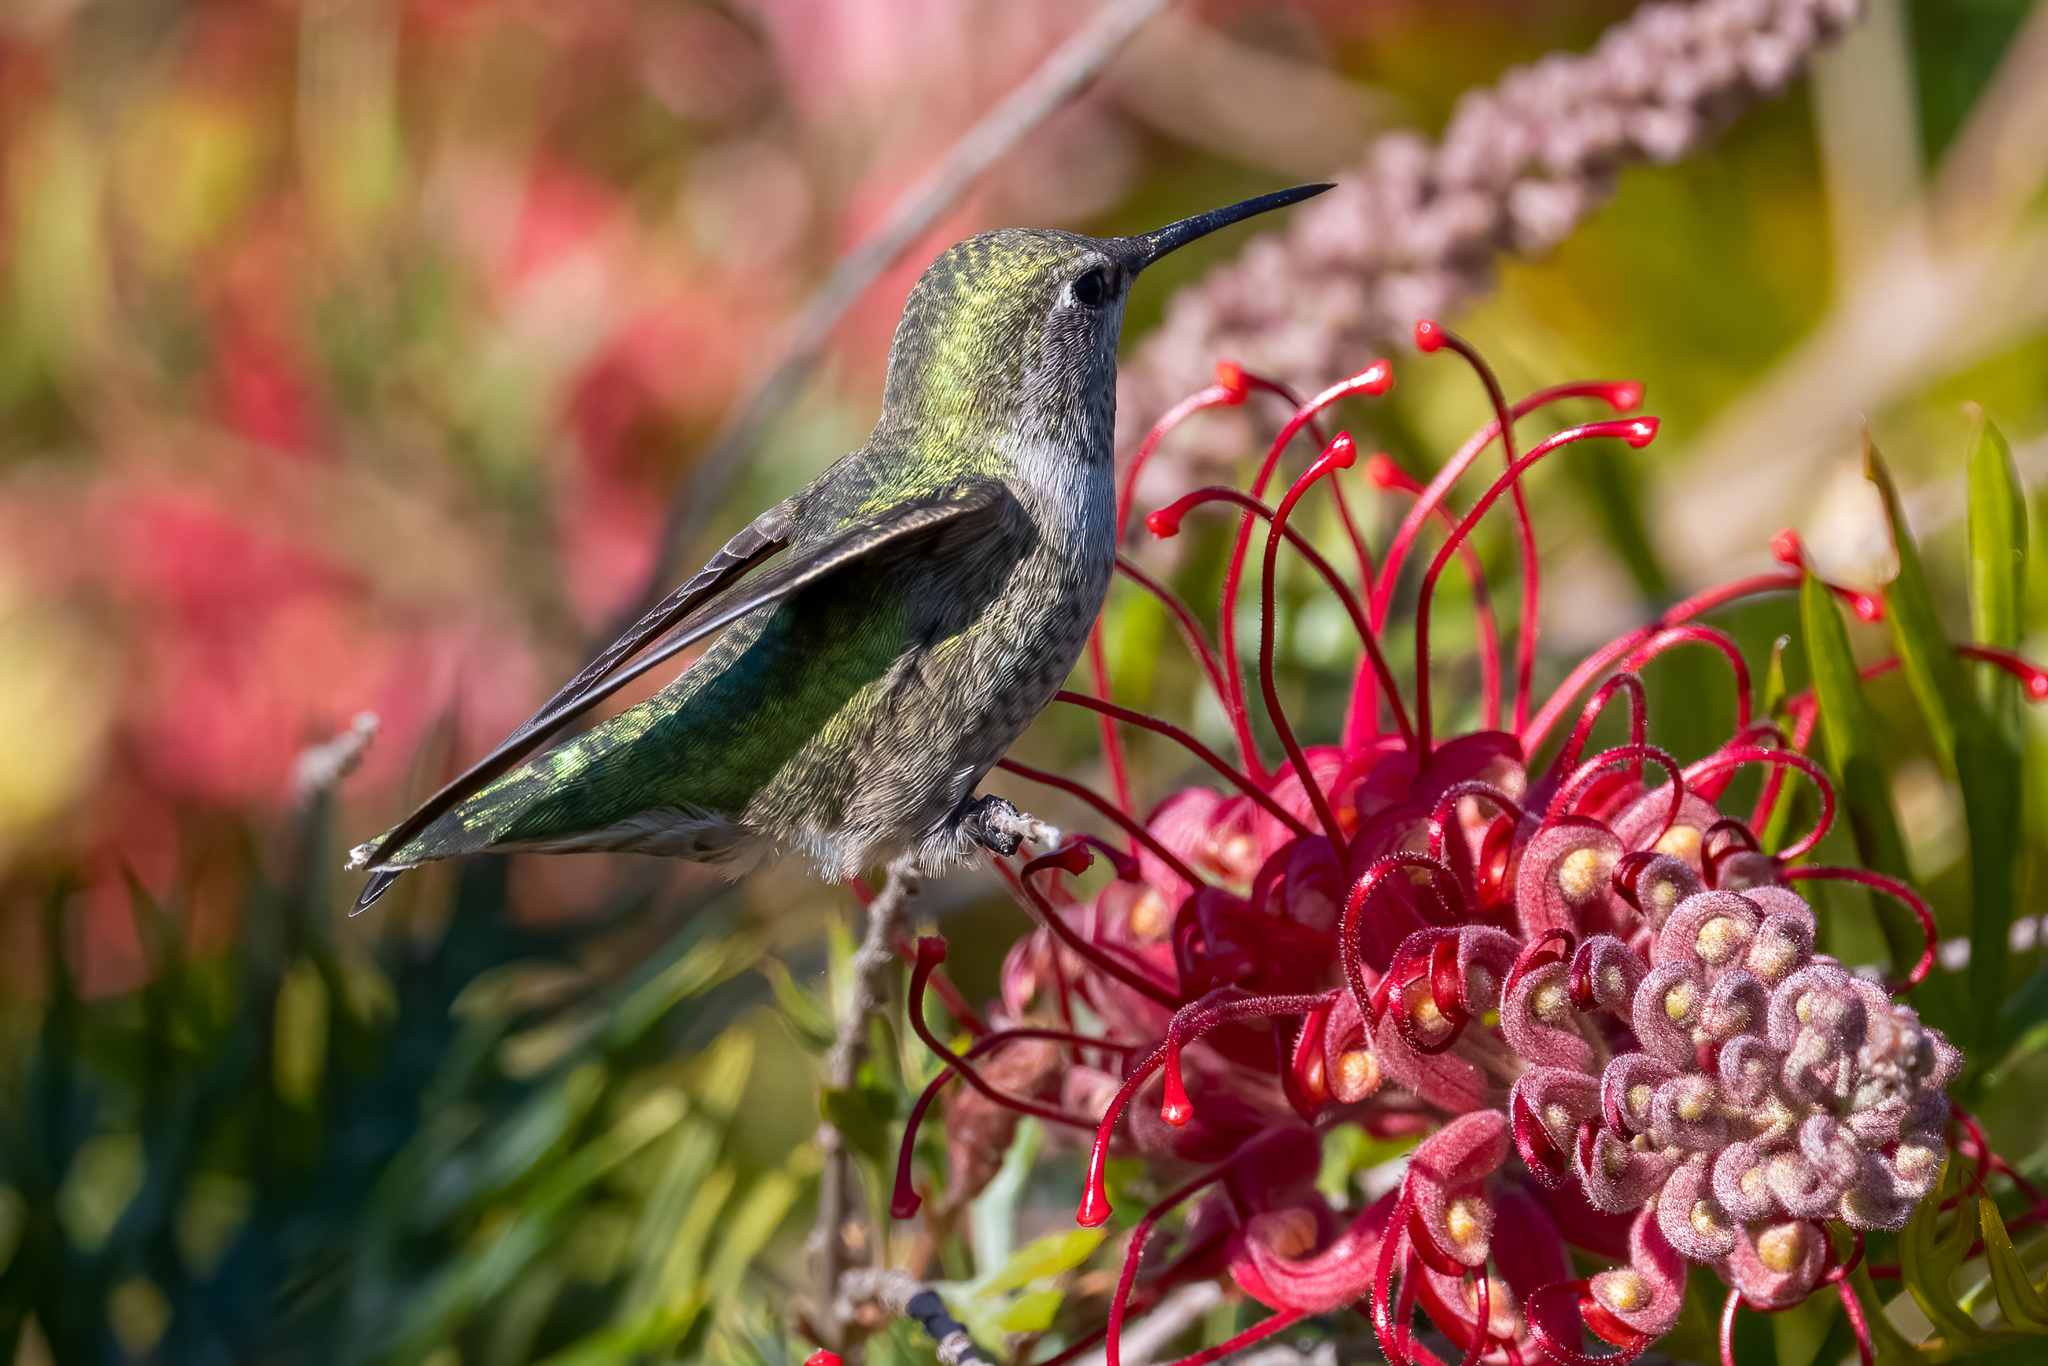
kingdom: Animalia
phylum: Chordata
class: Aves
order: Apodiformes
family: Trochilidae
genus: Calypte
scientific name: Calypte anna
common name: Anna's hummingbird
